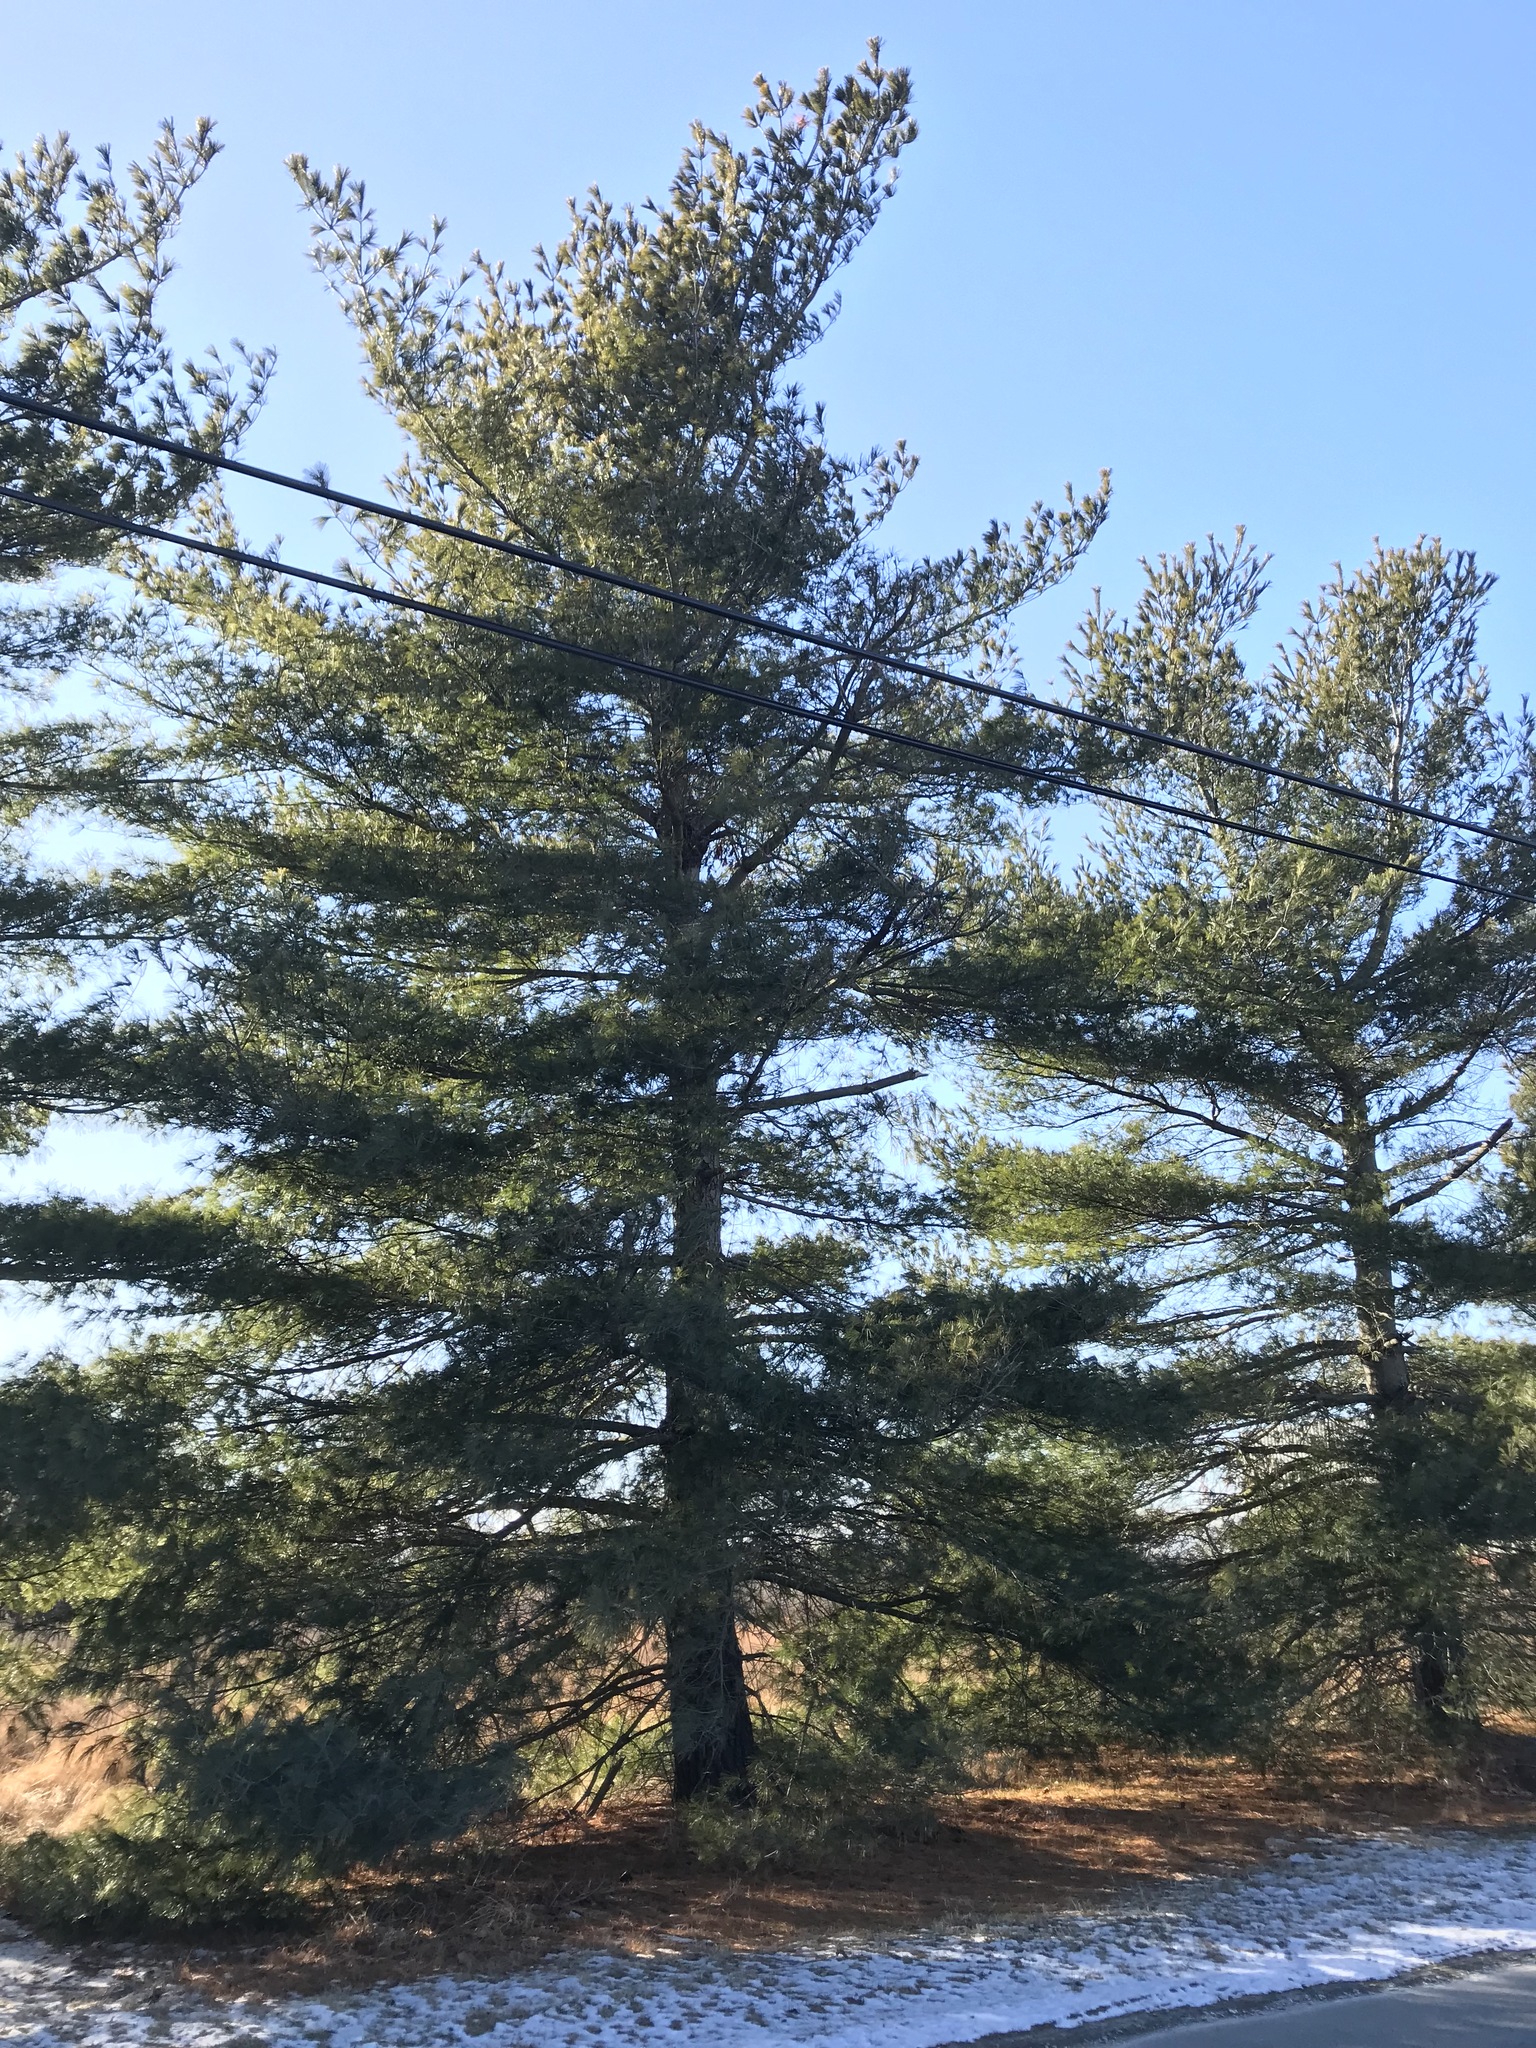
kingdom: Plantae
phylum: Tracheophyta
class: Pinopsida
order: Pinales
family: Pinaceae
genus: Pinus
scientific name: Pinus strobus
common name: Weymouth pine
